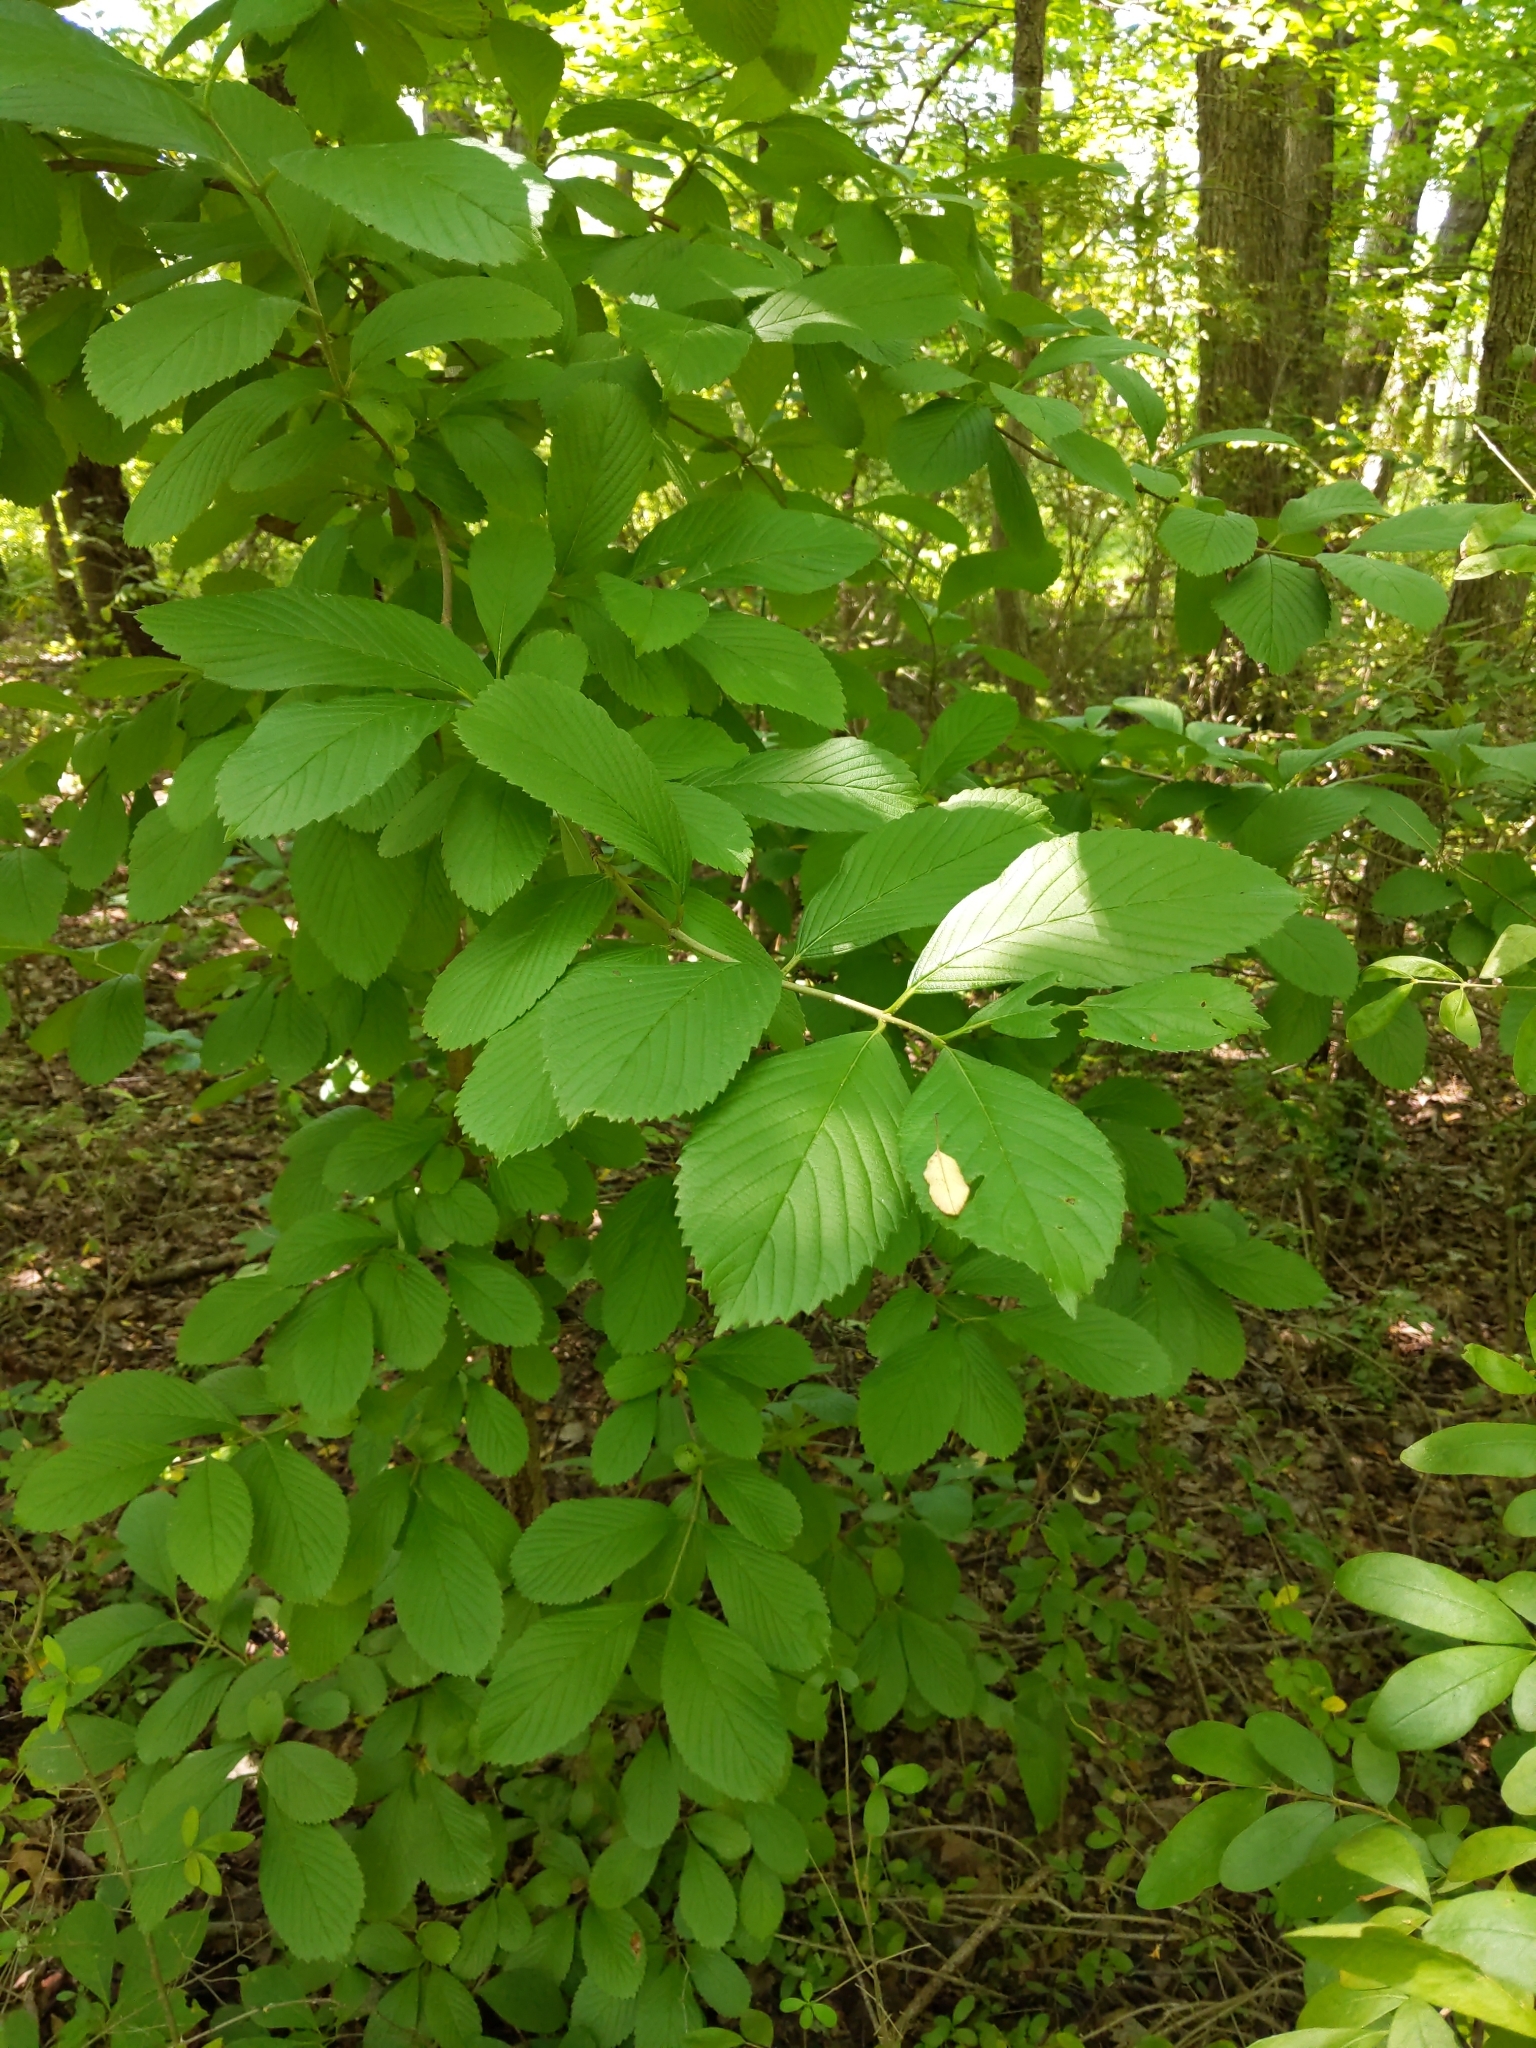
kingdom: Plantae
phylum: Tracheophyta
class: Magnoliopsida
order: Dipsacales
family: Viburnaceae
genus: Viburnum
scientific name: Viburnum sieboldii
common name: Siebold's arrowwood
